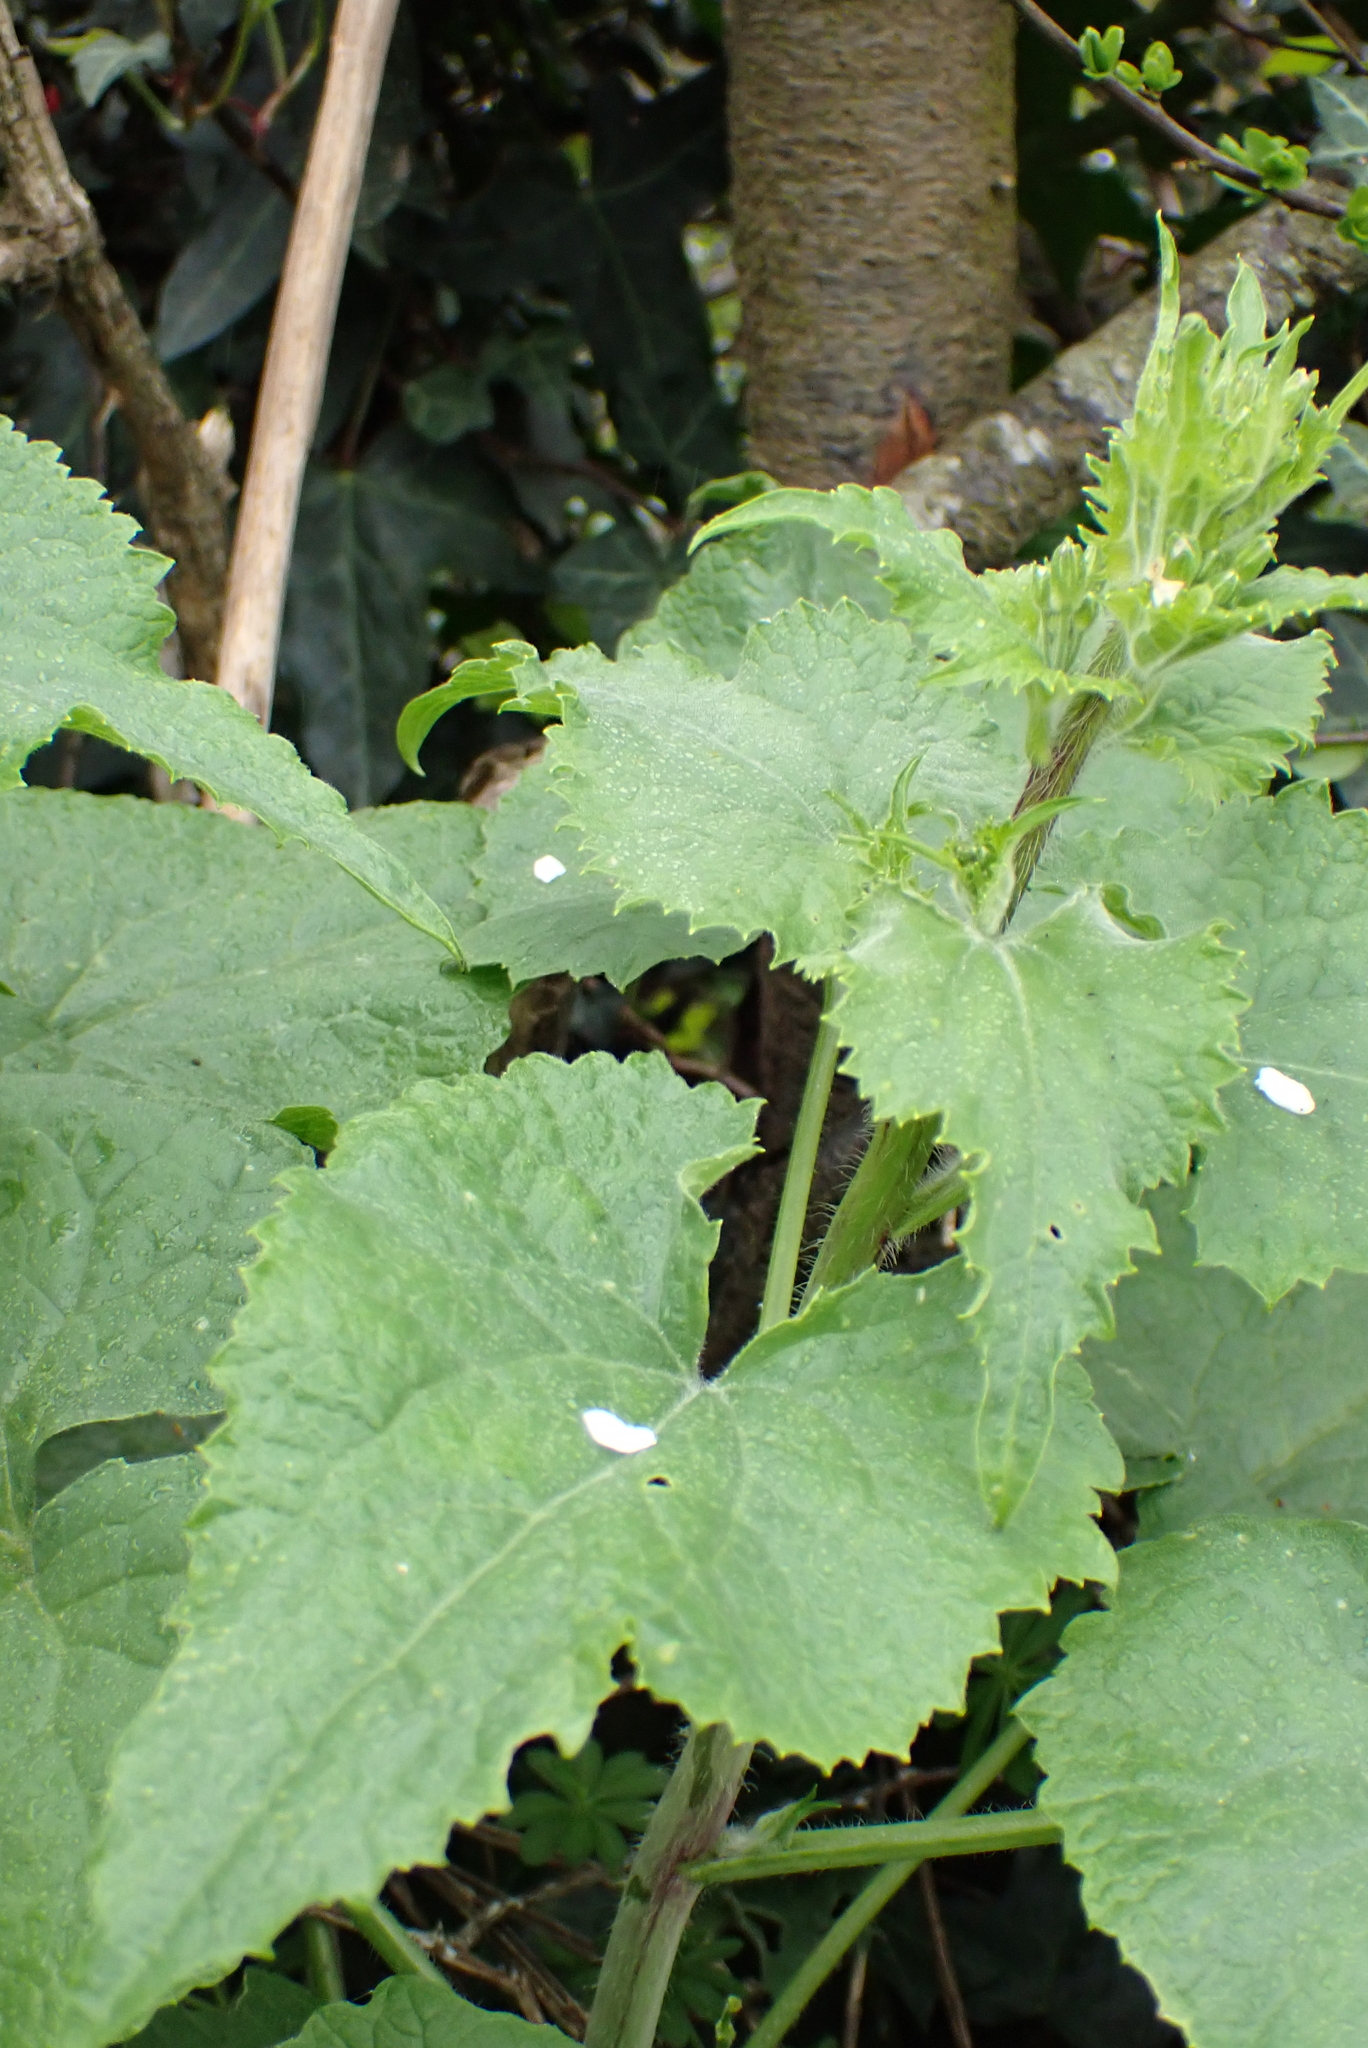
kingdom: Plantae
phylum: Tracheophyta
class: Magnoliopsida
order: Brassicales
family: Brassicaceae
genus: Lunaria
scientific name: Lunaria annua
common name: Honesty
